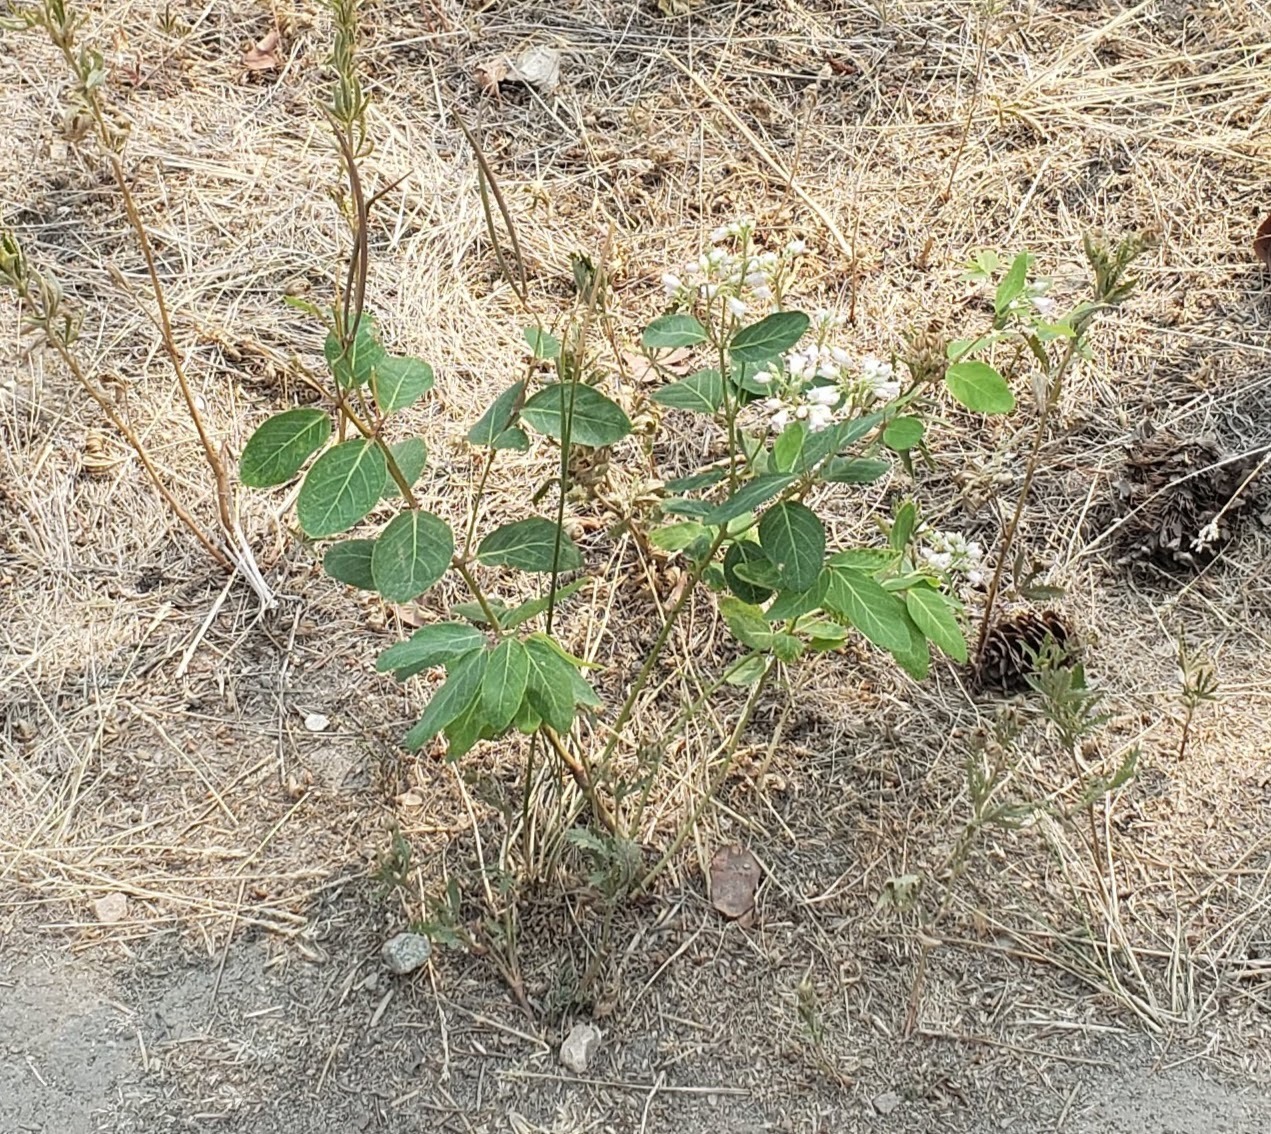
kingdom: Plantae
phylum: Tracheophyta
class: Magnoliopsida
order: Gentianales
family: Apocynaceae
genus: Apocynum
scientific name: Apocynum androsaemifolium
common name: Spreading dogbane
